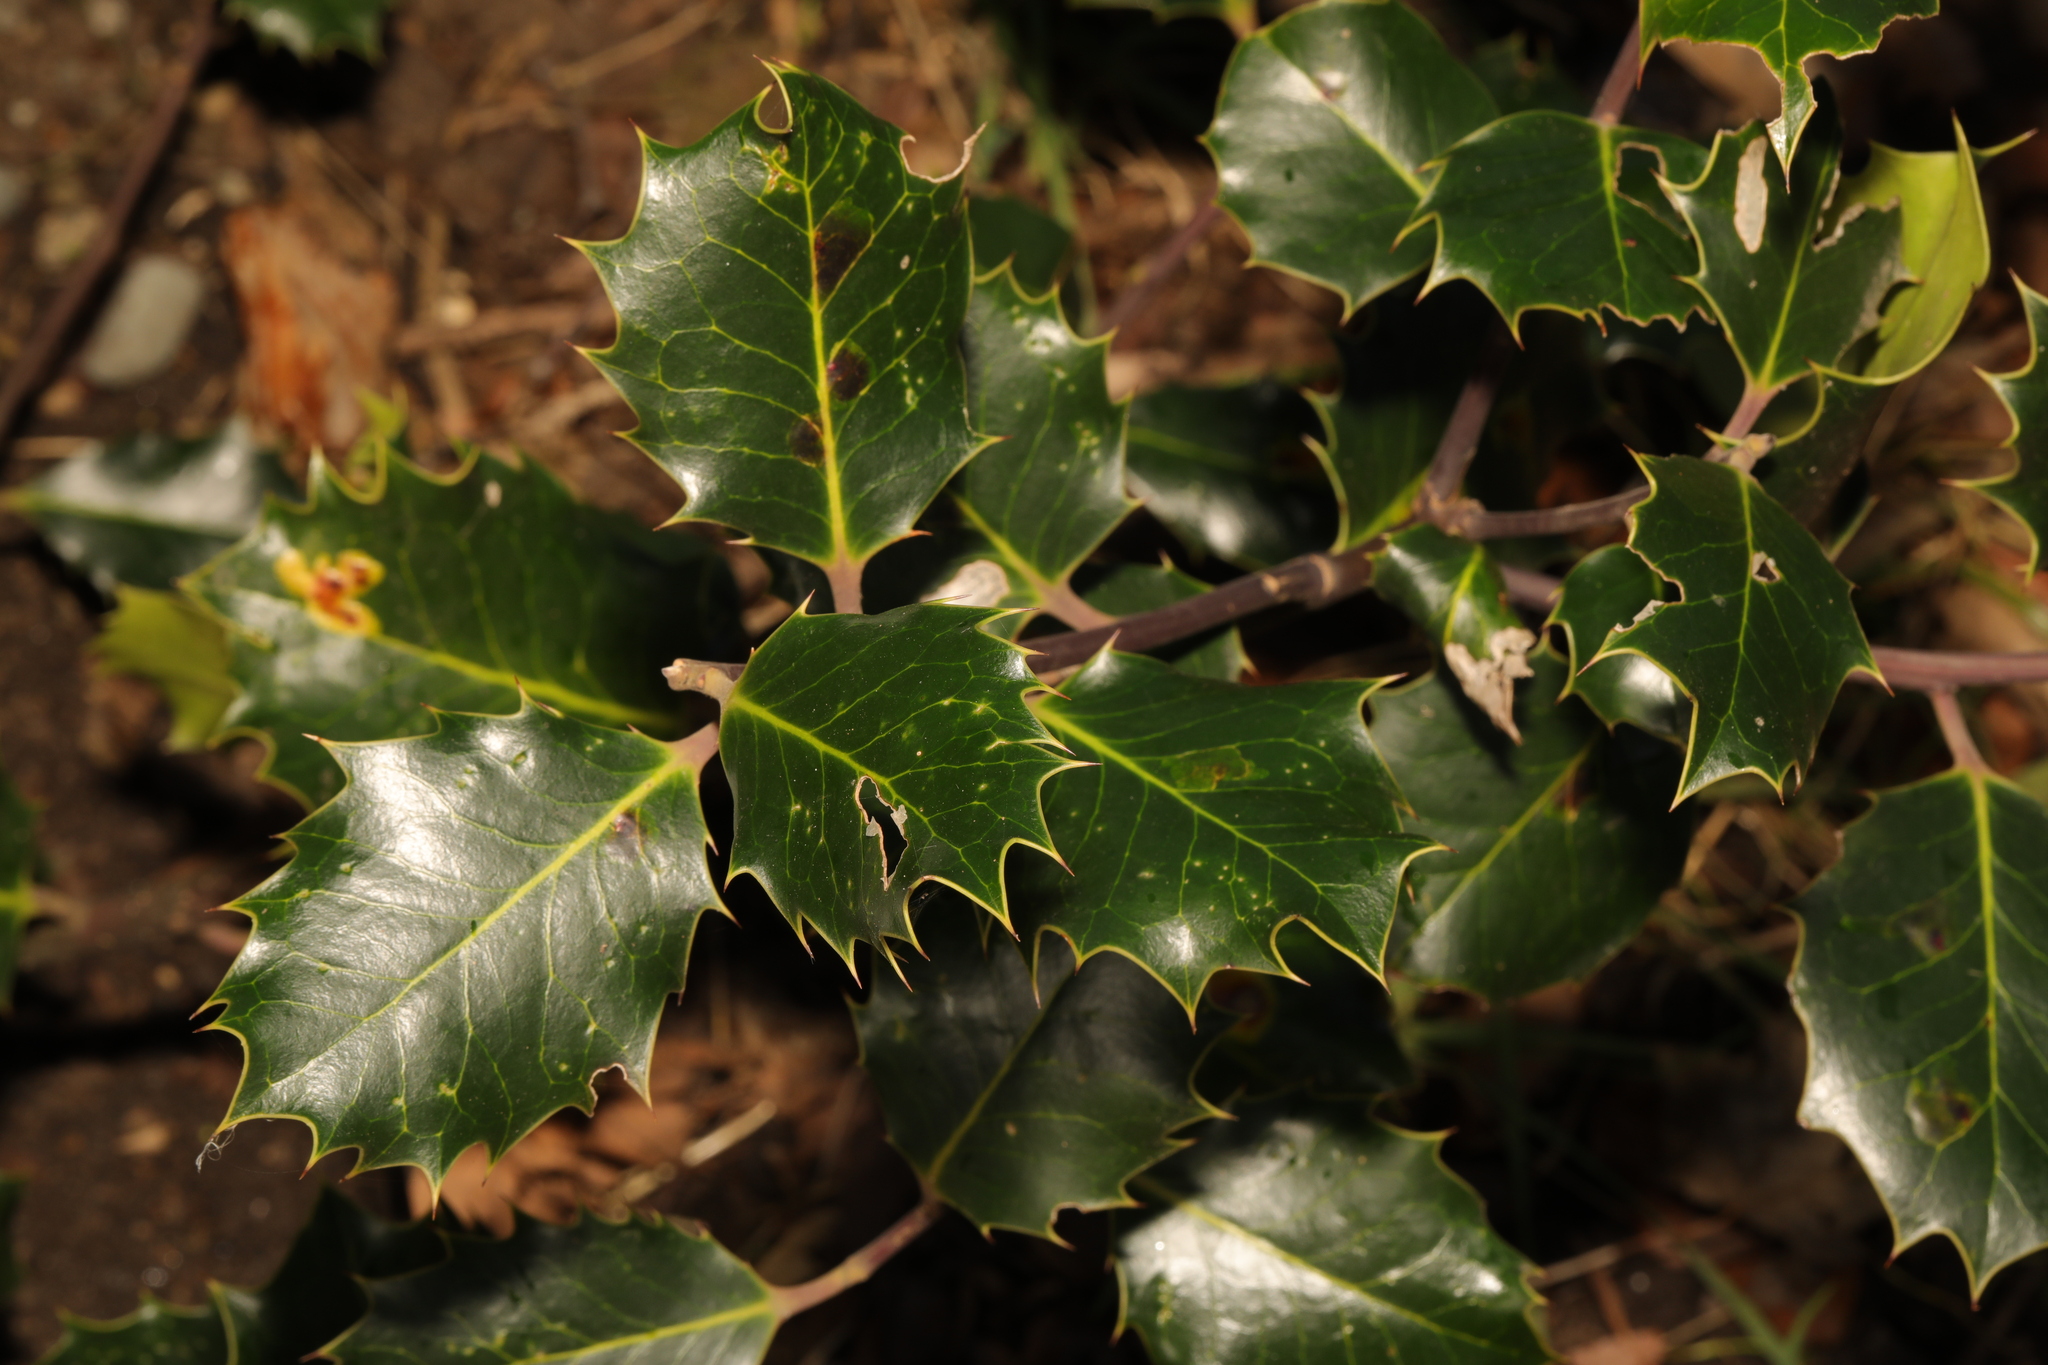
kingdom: Plantae
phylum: Tracheophyta
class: Magnoliopsida
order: Aquifoliales
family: Aquifoliaceae
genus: Ilex
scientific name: Ilex aquifolium
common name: English holly
